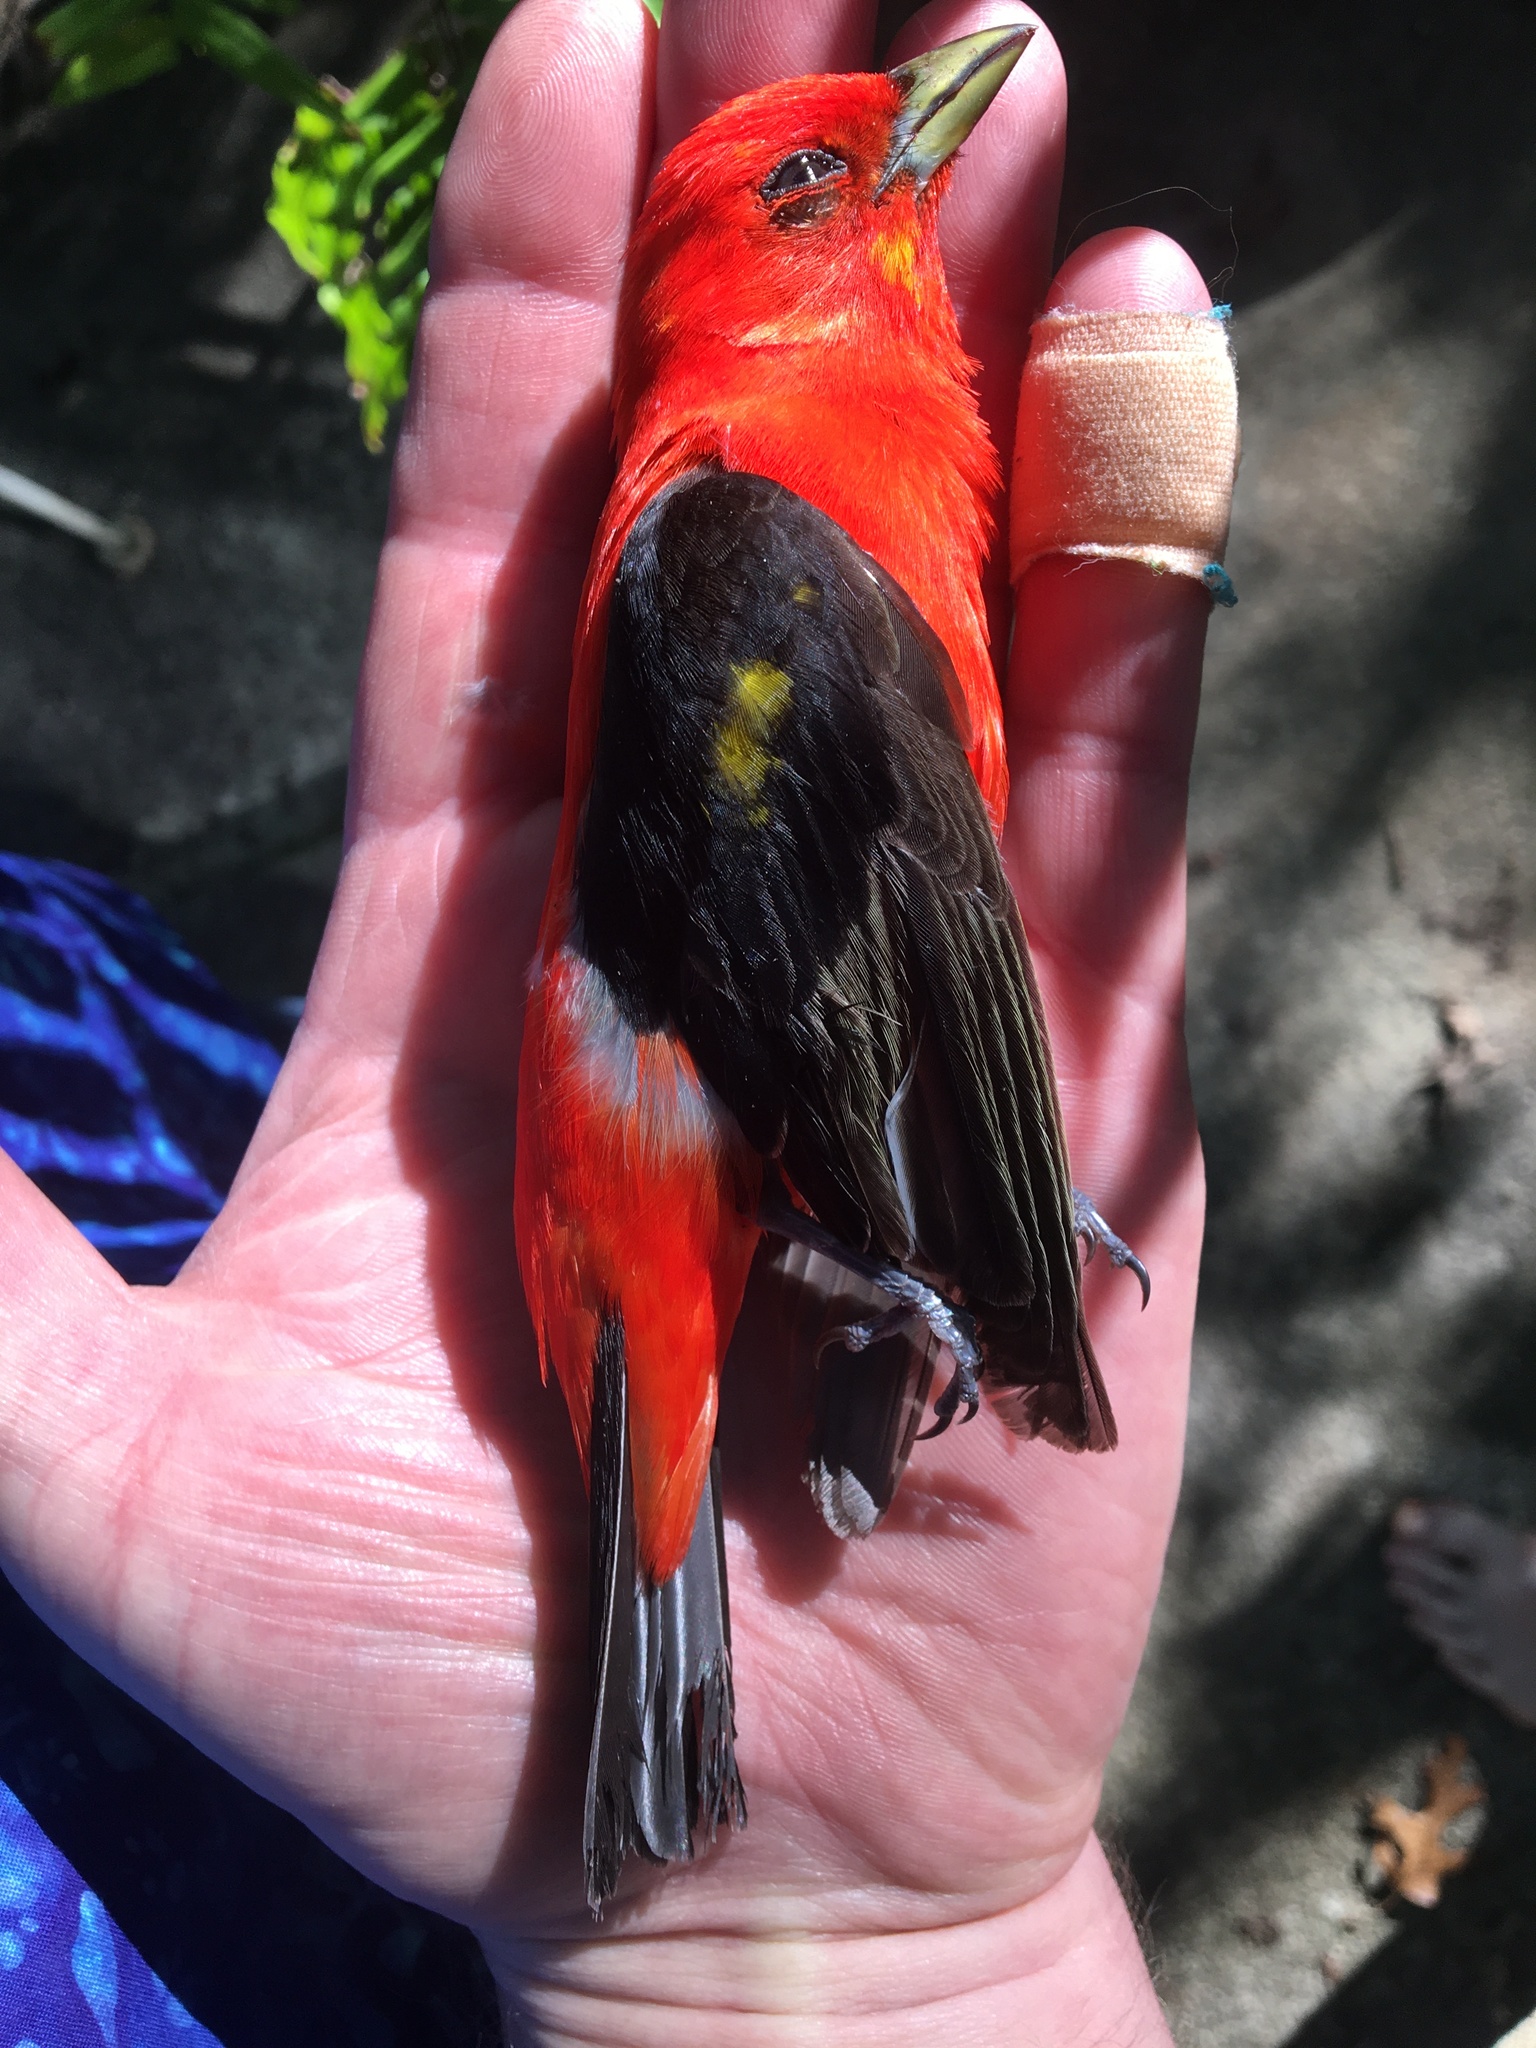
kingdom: Animalia
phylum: Chordata
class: Aves
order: Passeriformes
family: Cardinalidae
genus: Piranga
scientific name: Piranga olivacea
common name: Scarlet tanager
